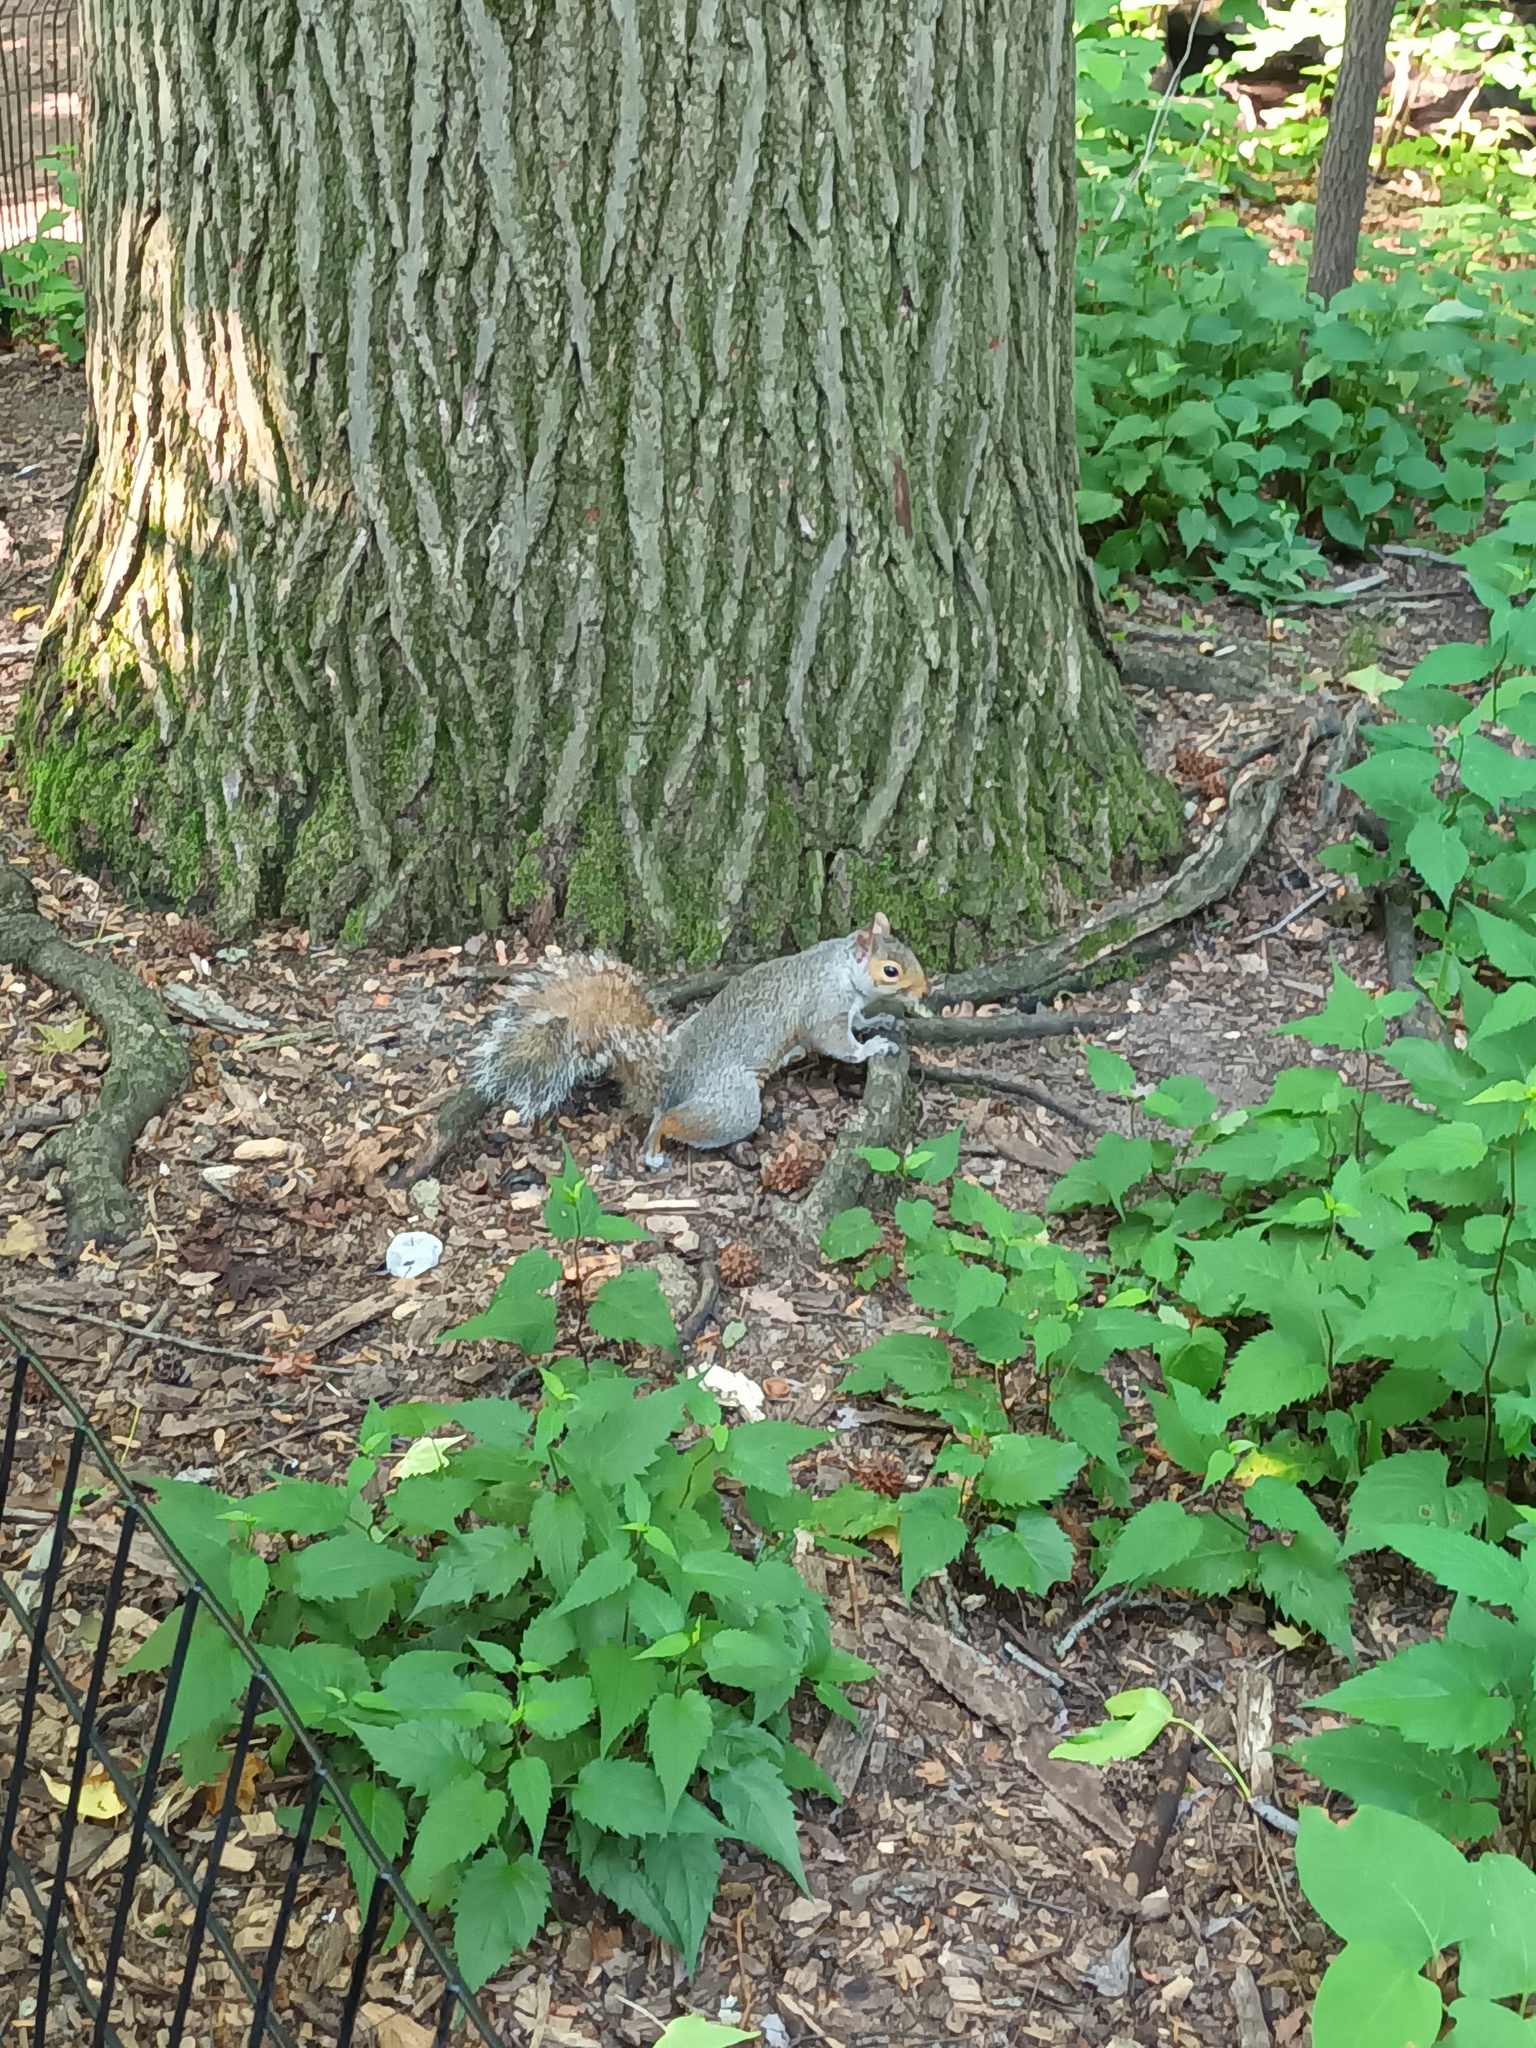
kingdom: Animalia
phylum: Chordata
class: Mammalia
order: Rodentia
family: Sciuridae
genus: Sciurus
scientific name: Sciurus carolinensis
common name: Eastern gray squirrel
